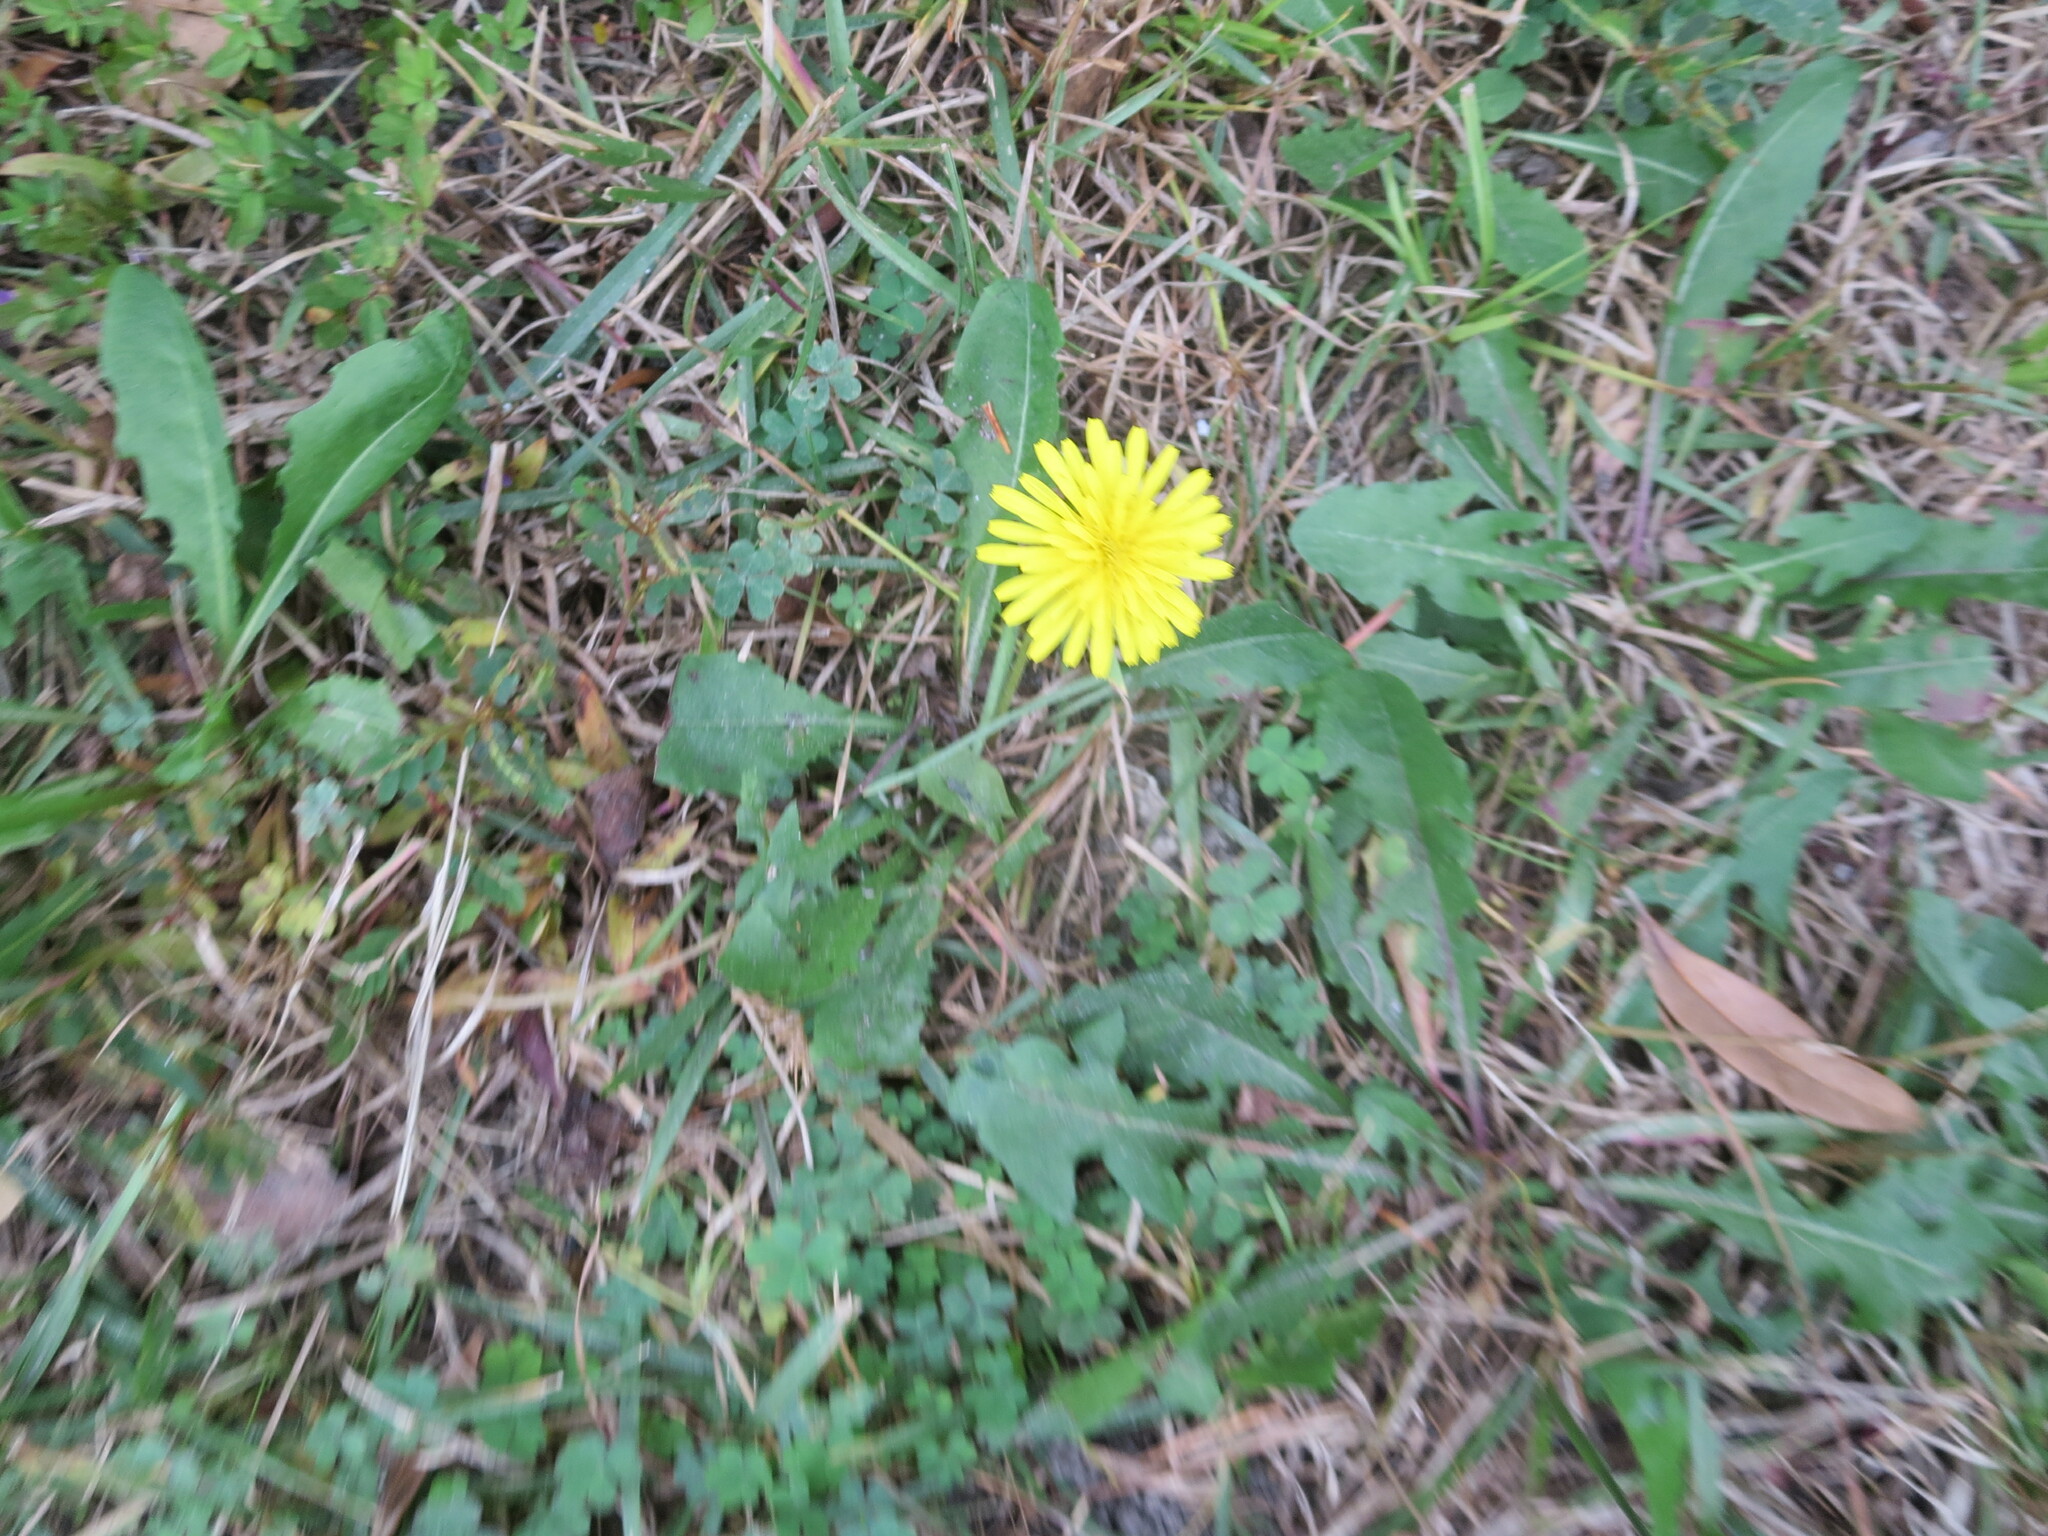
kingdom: Plantae
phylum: Tracheophyta
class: Magnoliopsida
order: Asterales
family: Asteraceae
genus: Taraxacum
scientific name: Taraxacum
